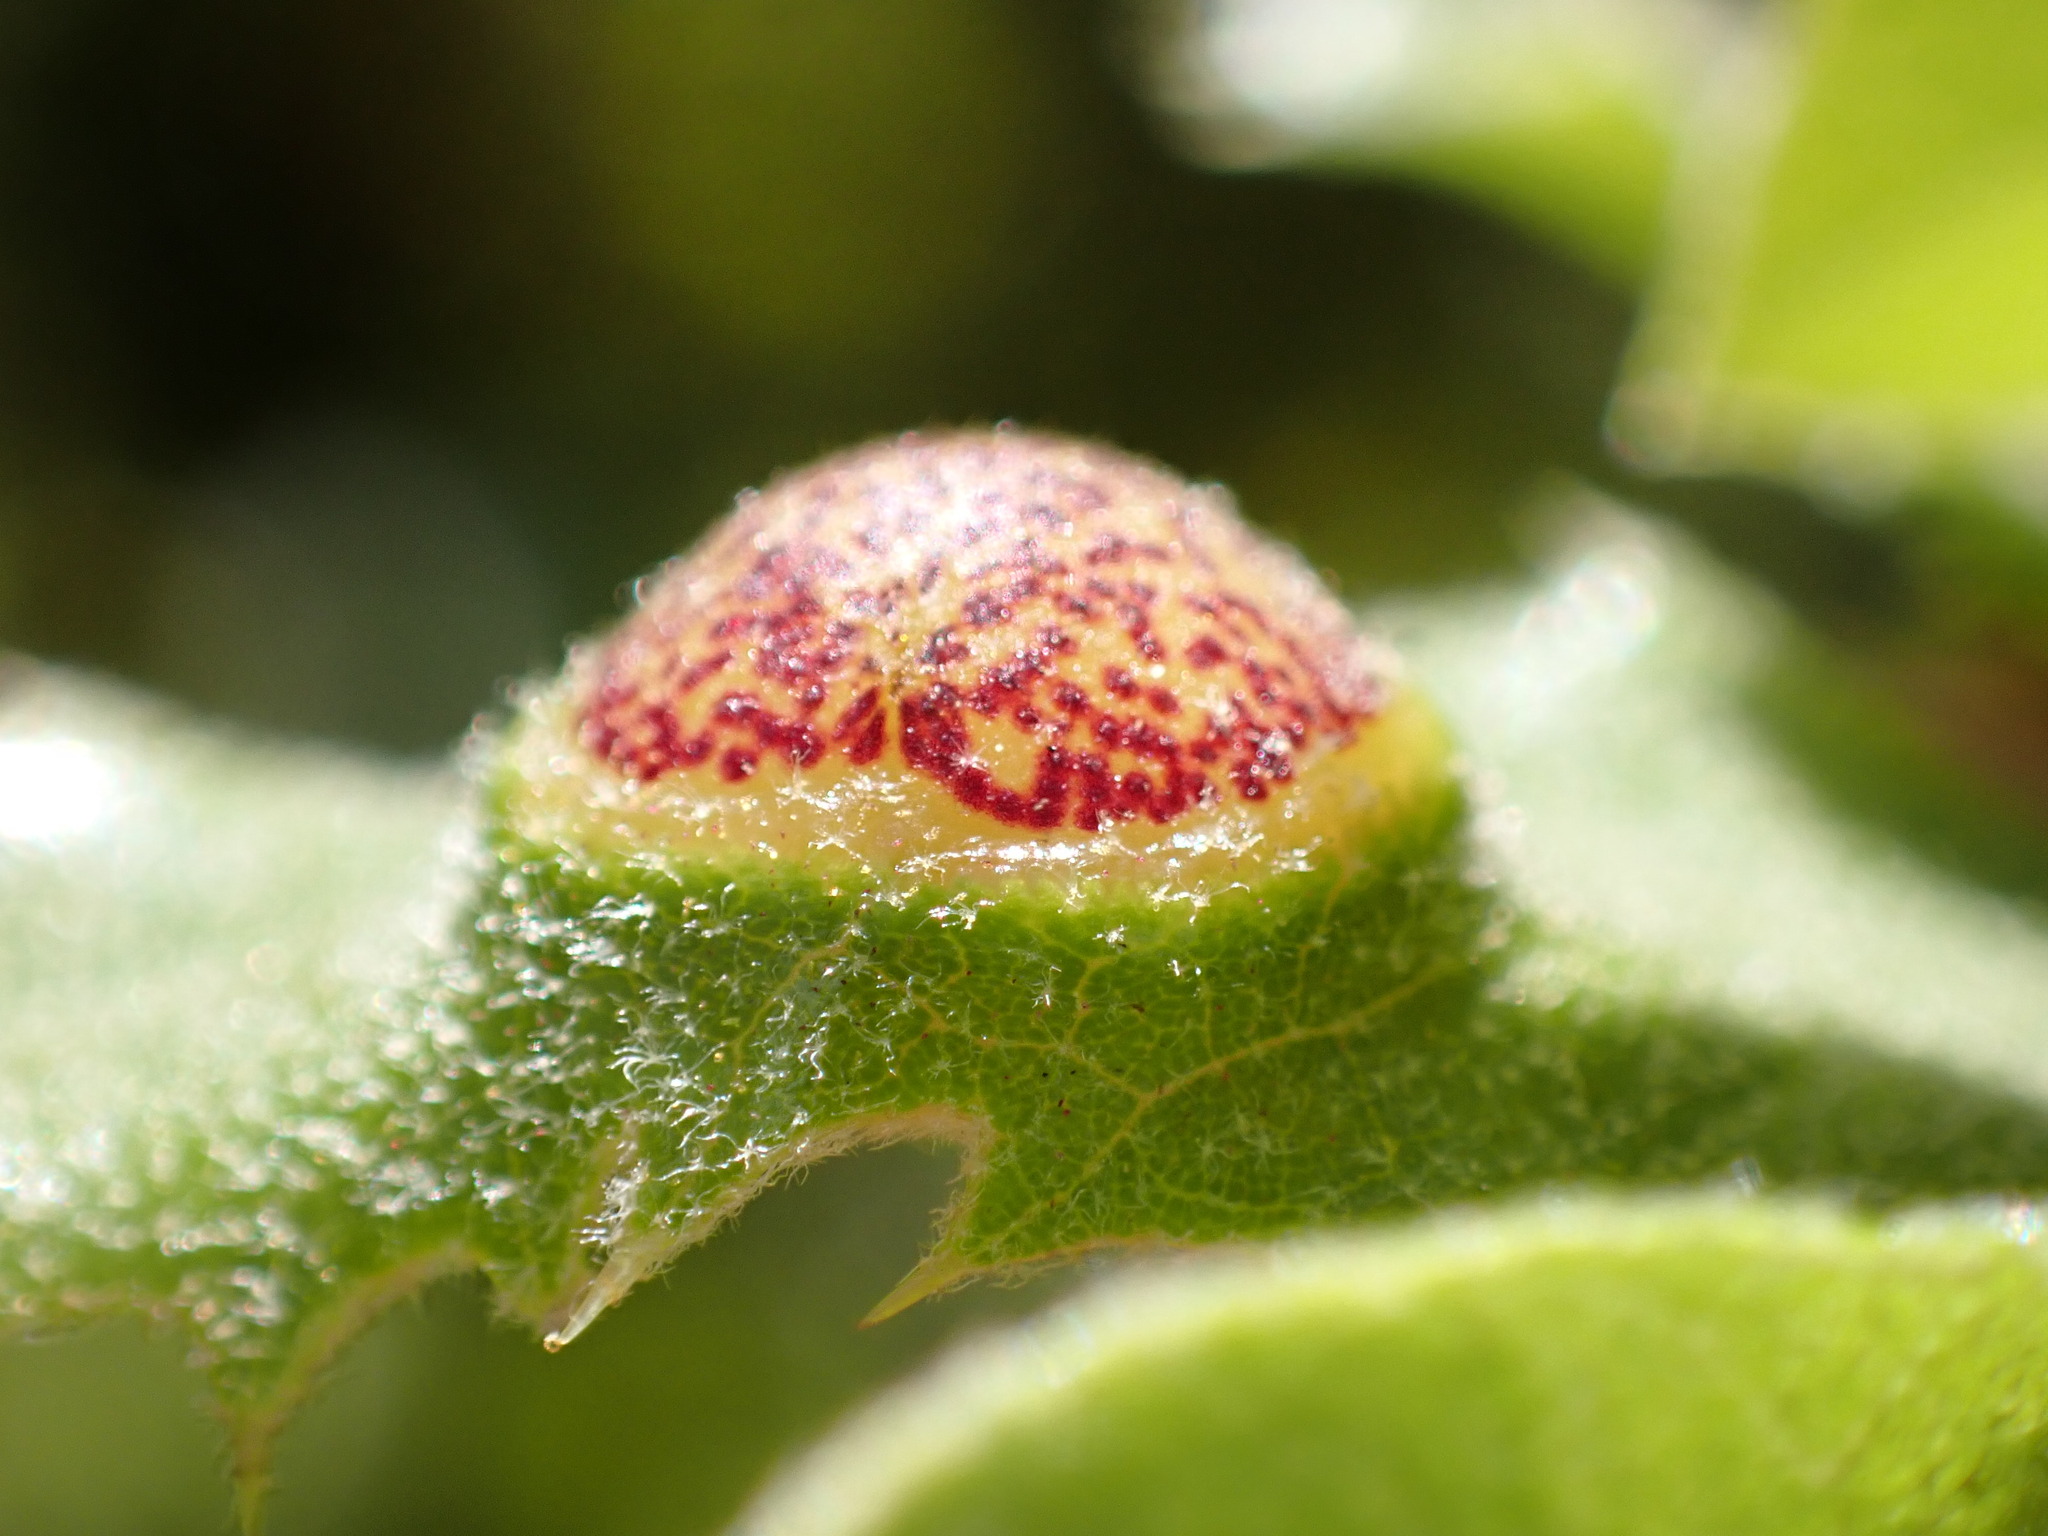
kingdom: Animalia
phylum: Arthropoda
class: Insecta
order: Hymenoptera
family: Cynipidae
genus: Heteroecus
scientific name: Heteroecus
